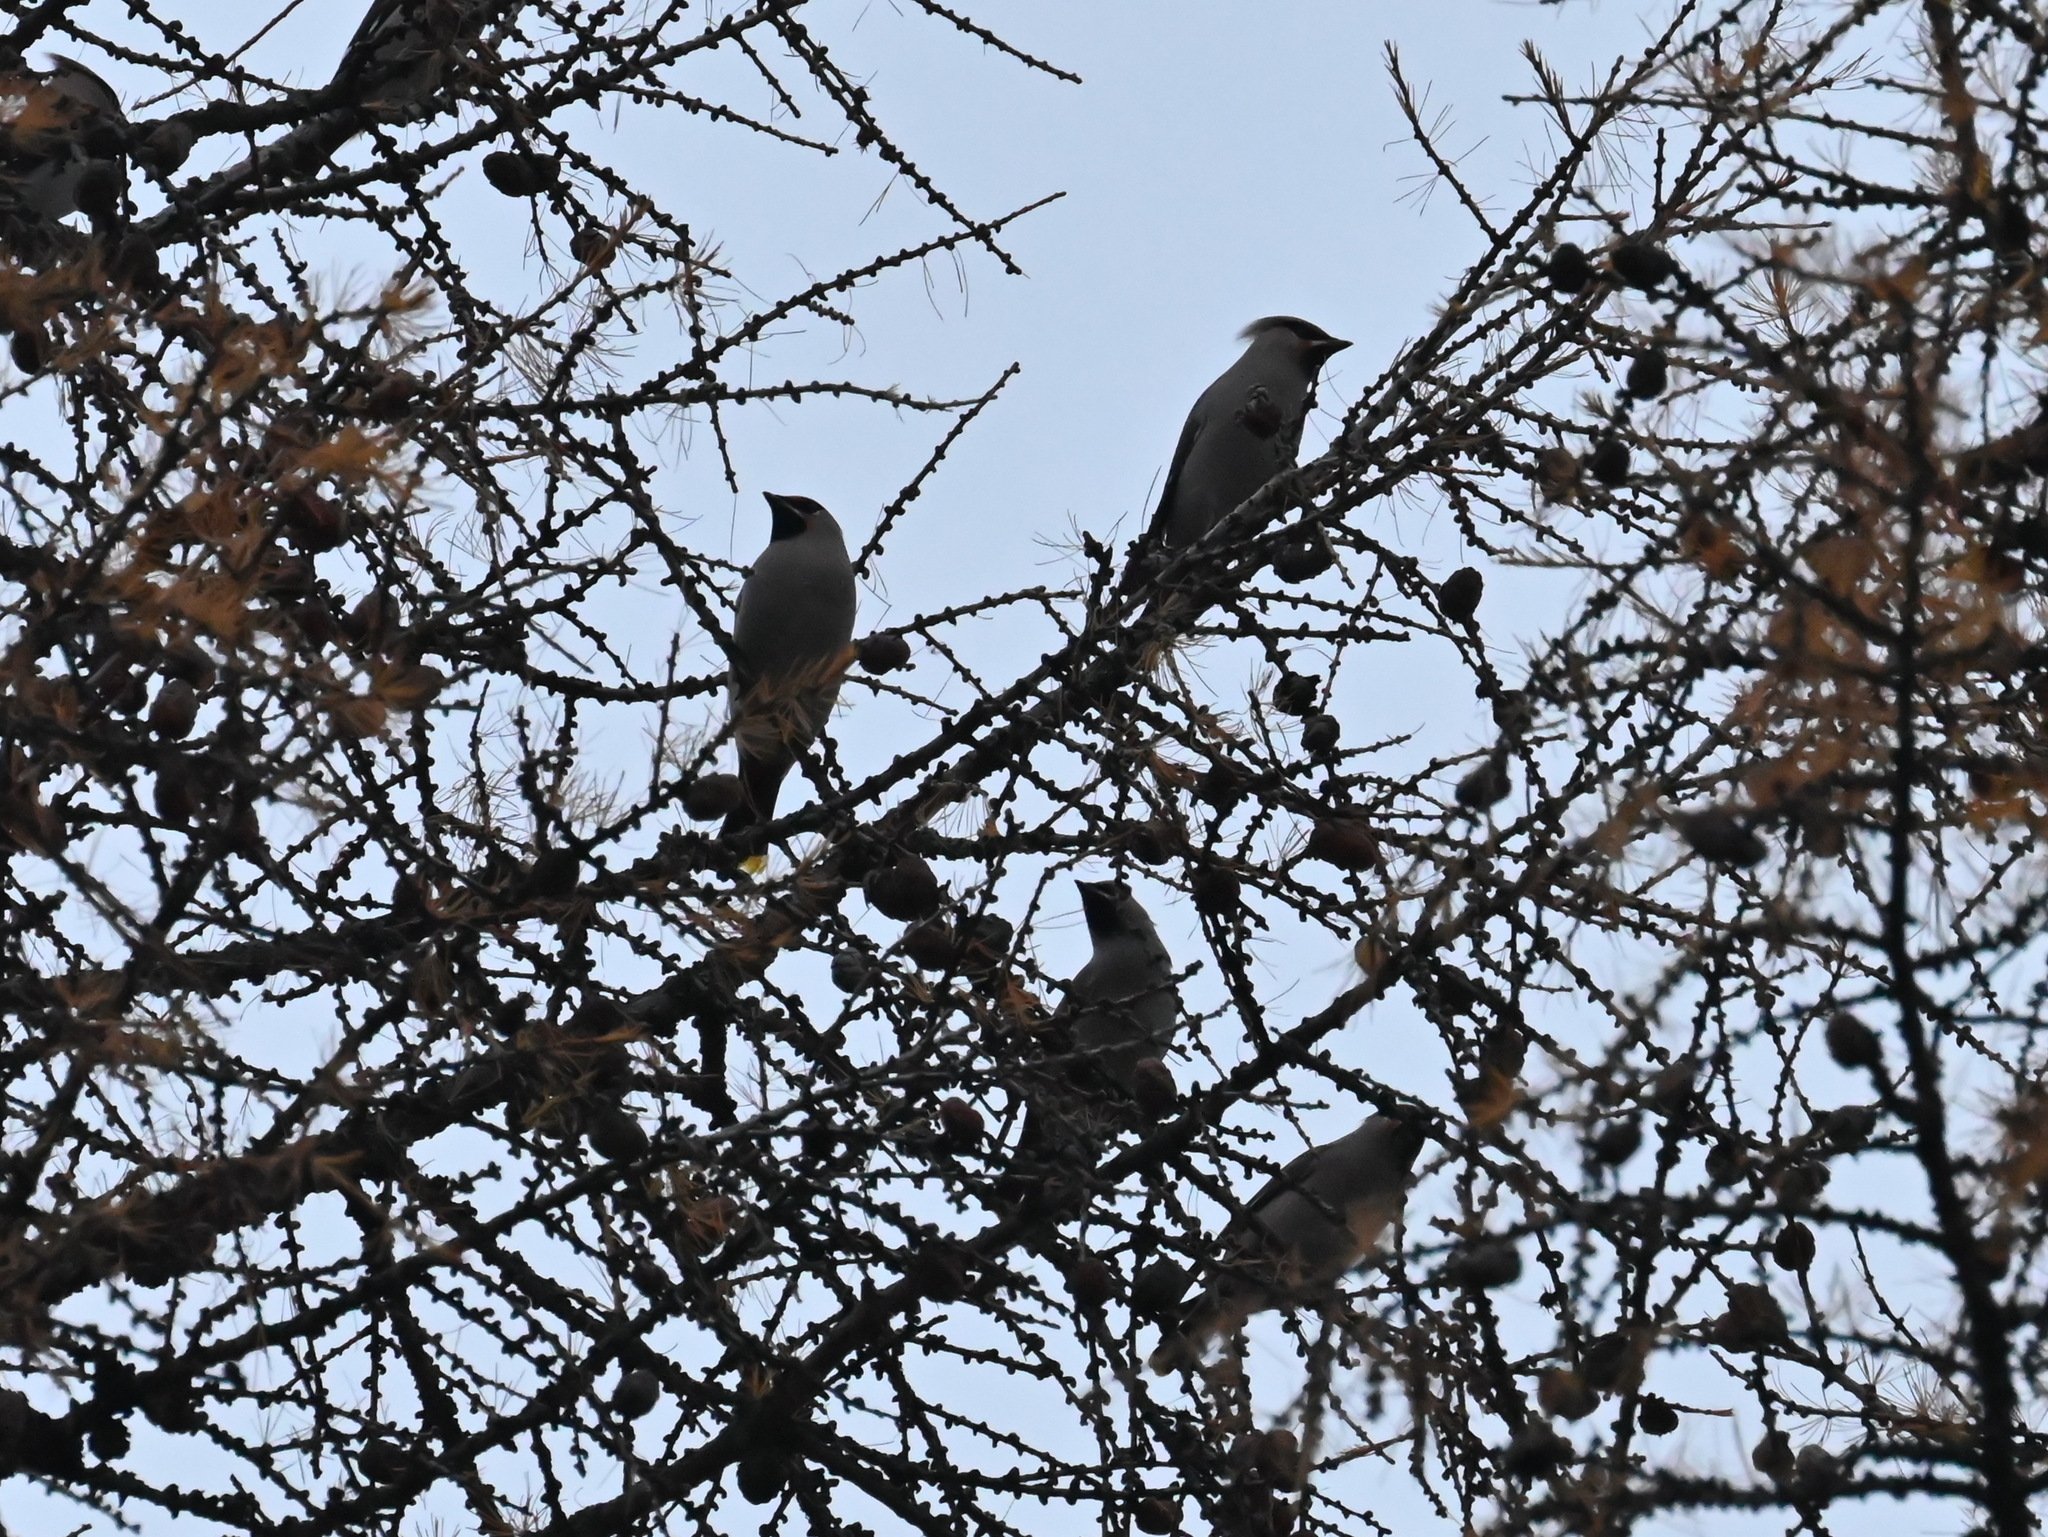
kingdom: Animalia
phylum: Chordata
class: Aves
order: Passeriformes
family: Bombycillidae
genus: Bombycilla
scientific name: Bombycilla garrulus
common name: Bohemian waxwing
